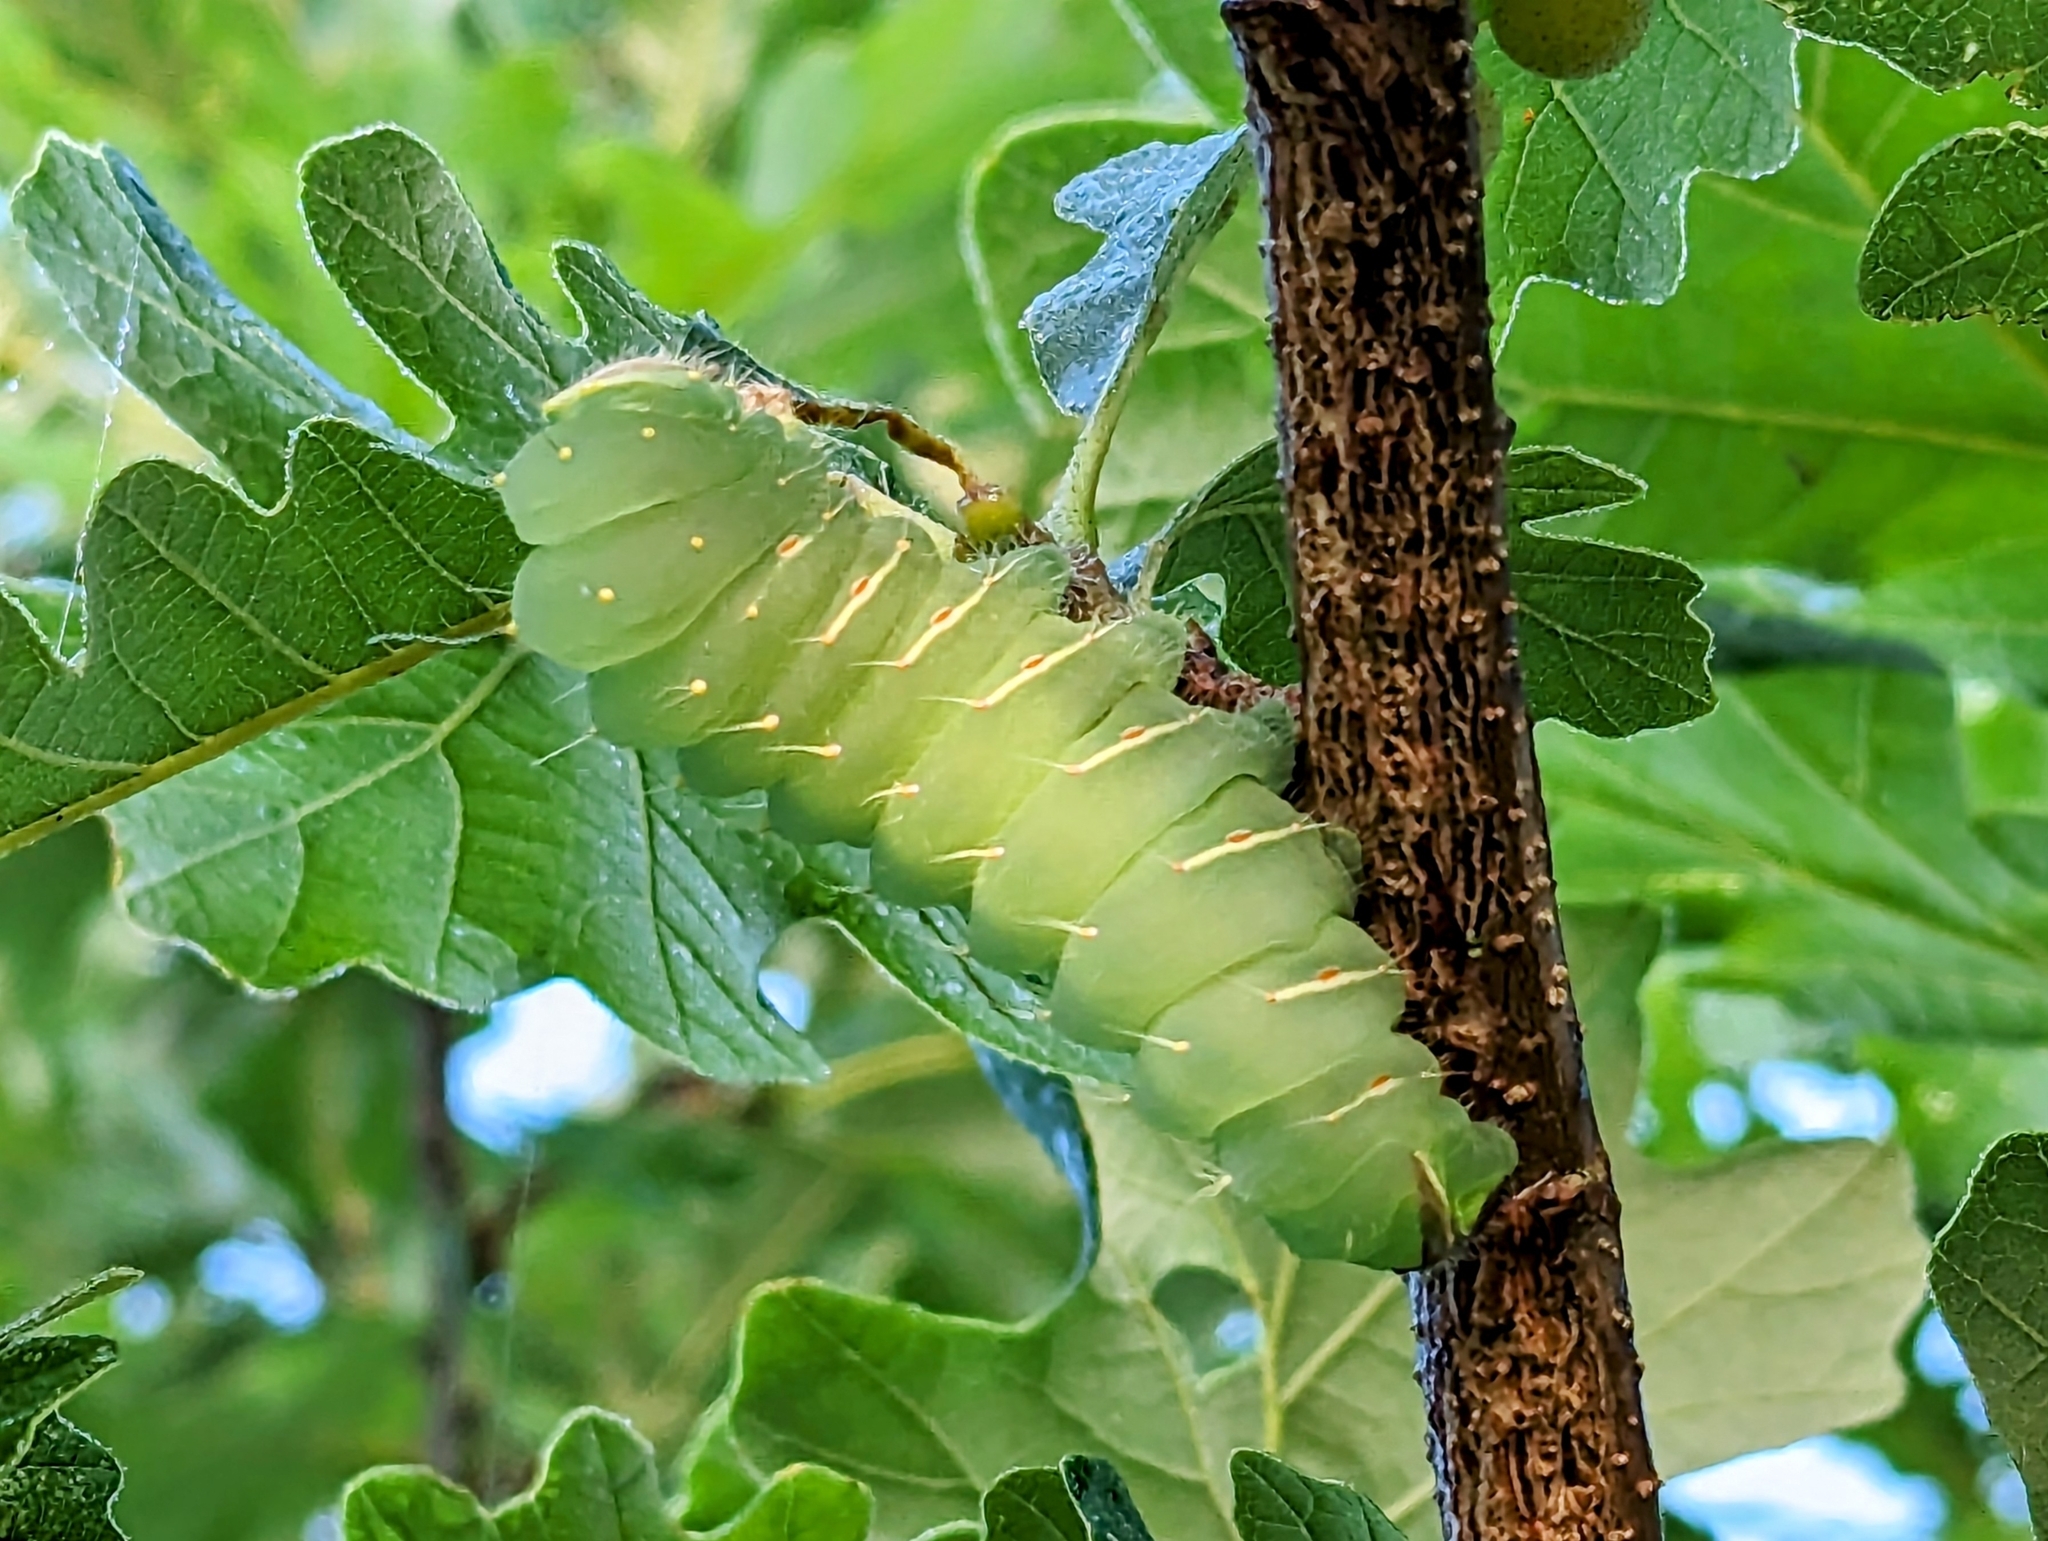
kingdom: Animalia
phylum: Arthropoda
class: Insecta
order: Lepidoptera
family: Saturniidae
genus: Antheraea
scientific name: Antheraea polyphemus
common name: Polyphemus moth
